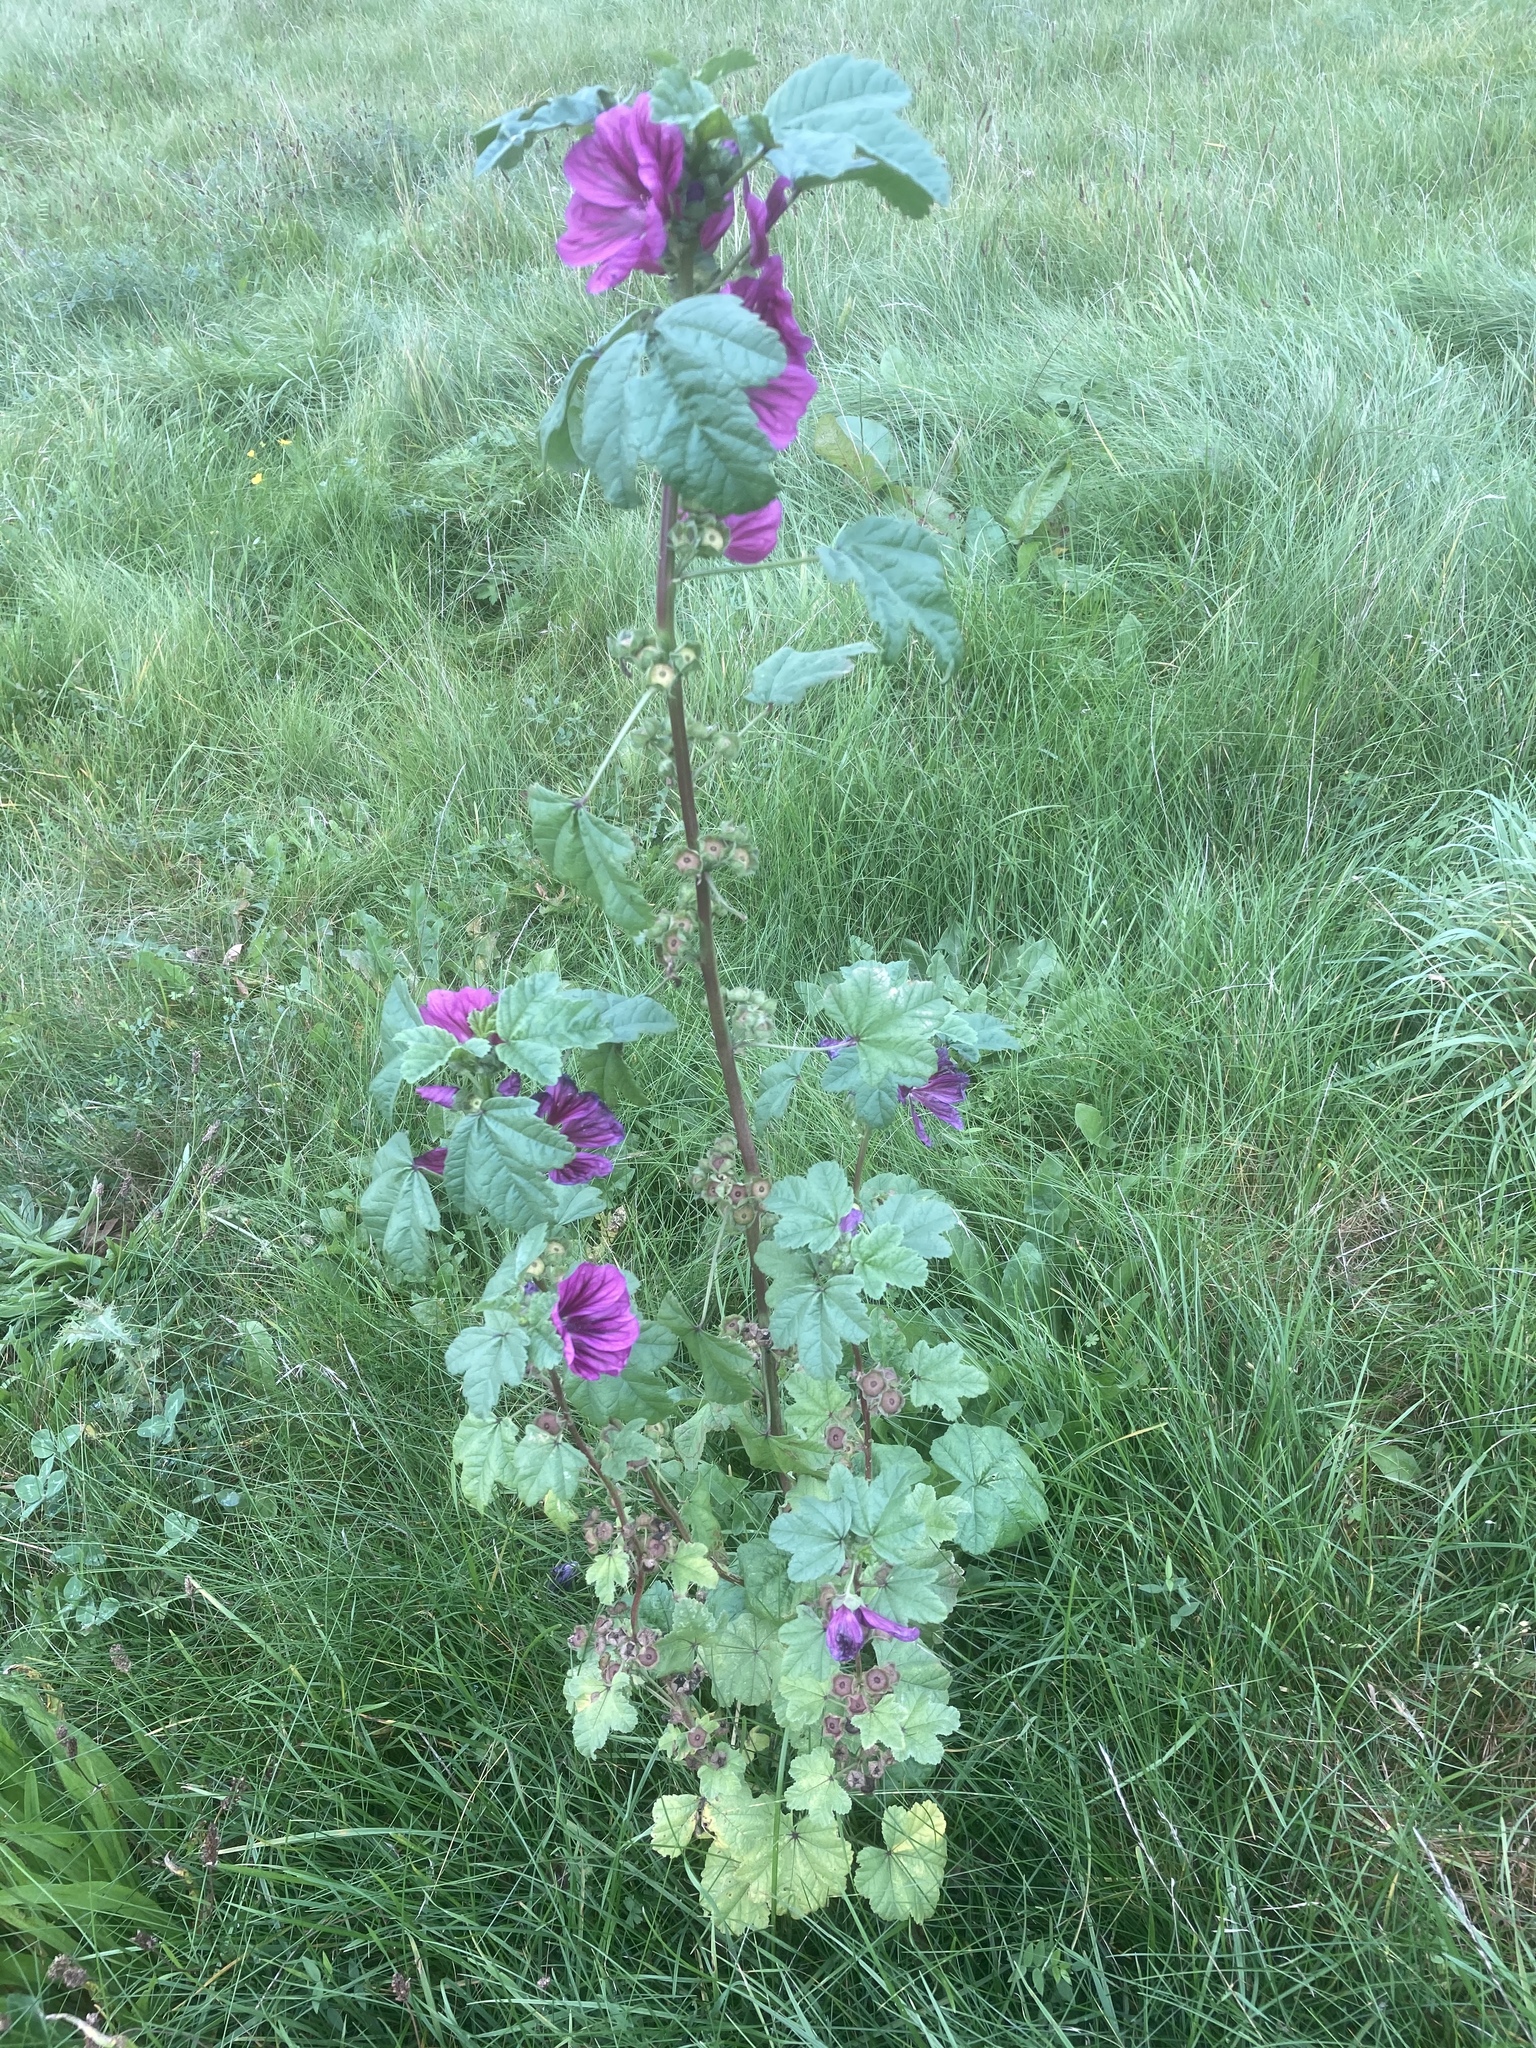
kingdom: Plantae
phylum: Tracheophyta
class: Magnoliopsida
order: Malvales
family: Malvaceae
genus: Malva
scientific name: Malva sylvestris
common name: Common mallow
